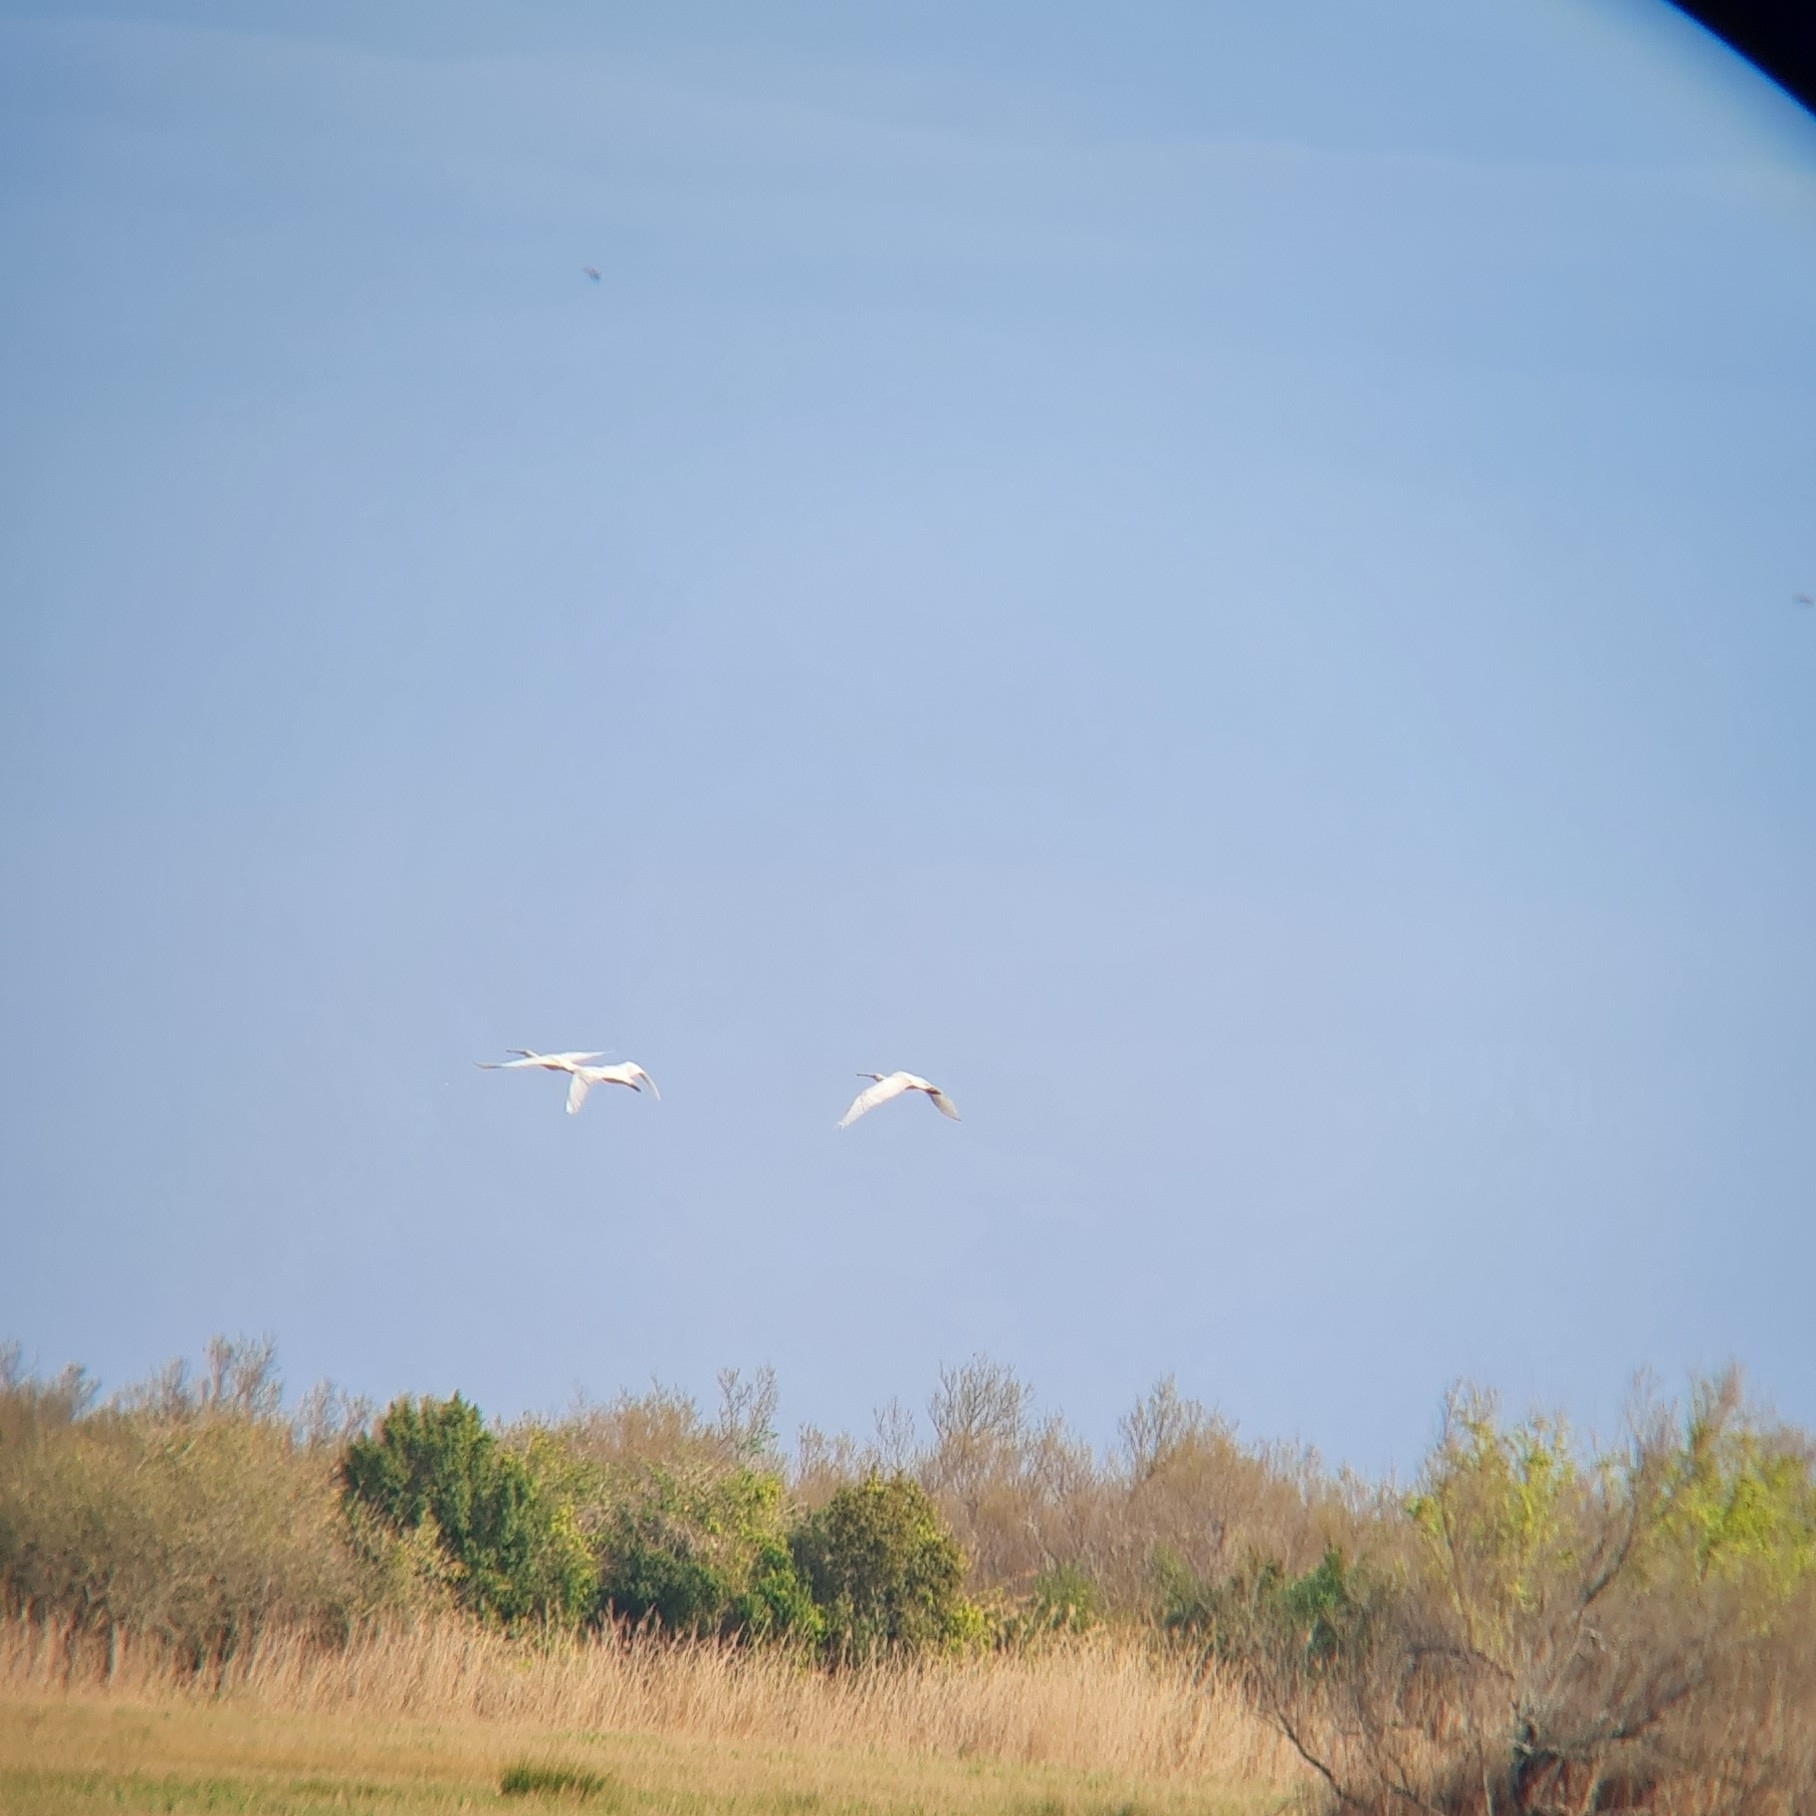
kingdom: Animalia
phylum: Chordata
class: Aves
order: Pelecaniformes
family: Threskiornithidae
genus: Platalea
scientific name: Platalea leucorodia
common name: Eurasian spoonbill
